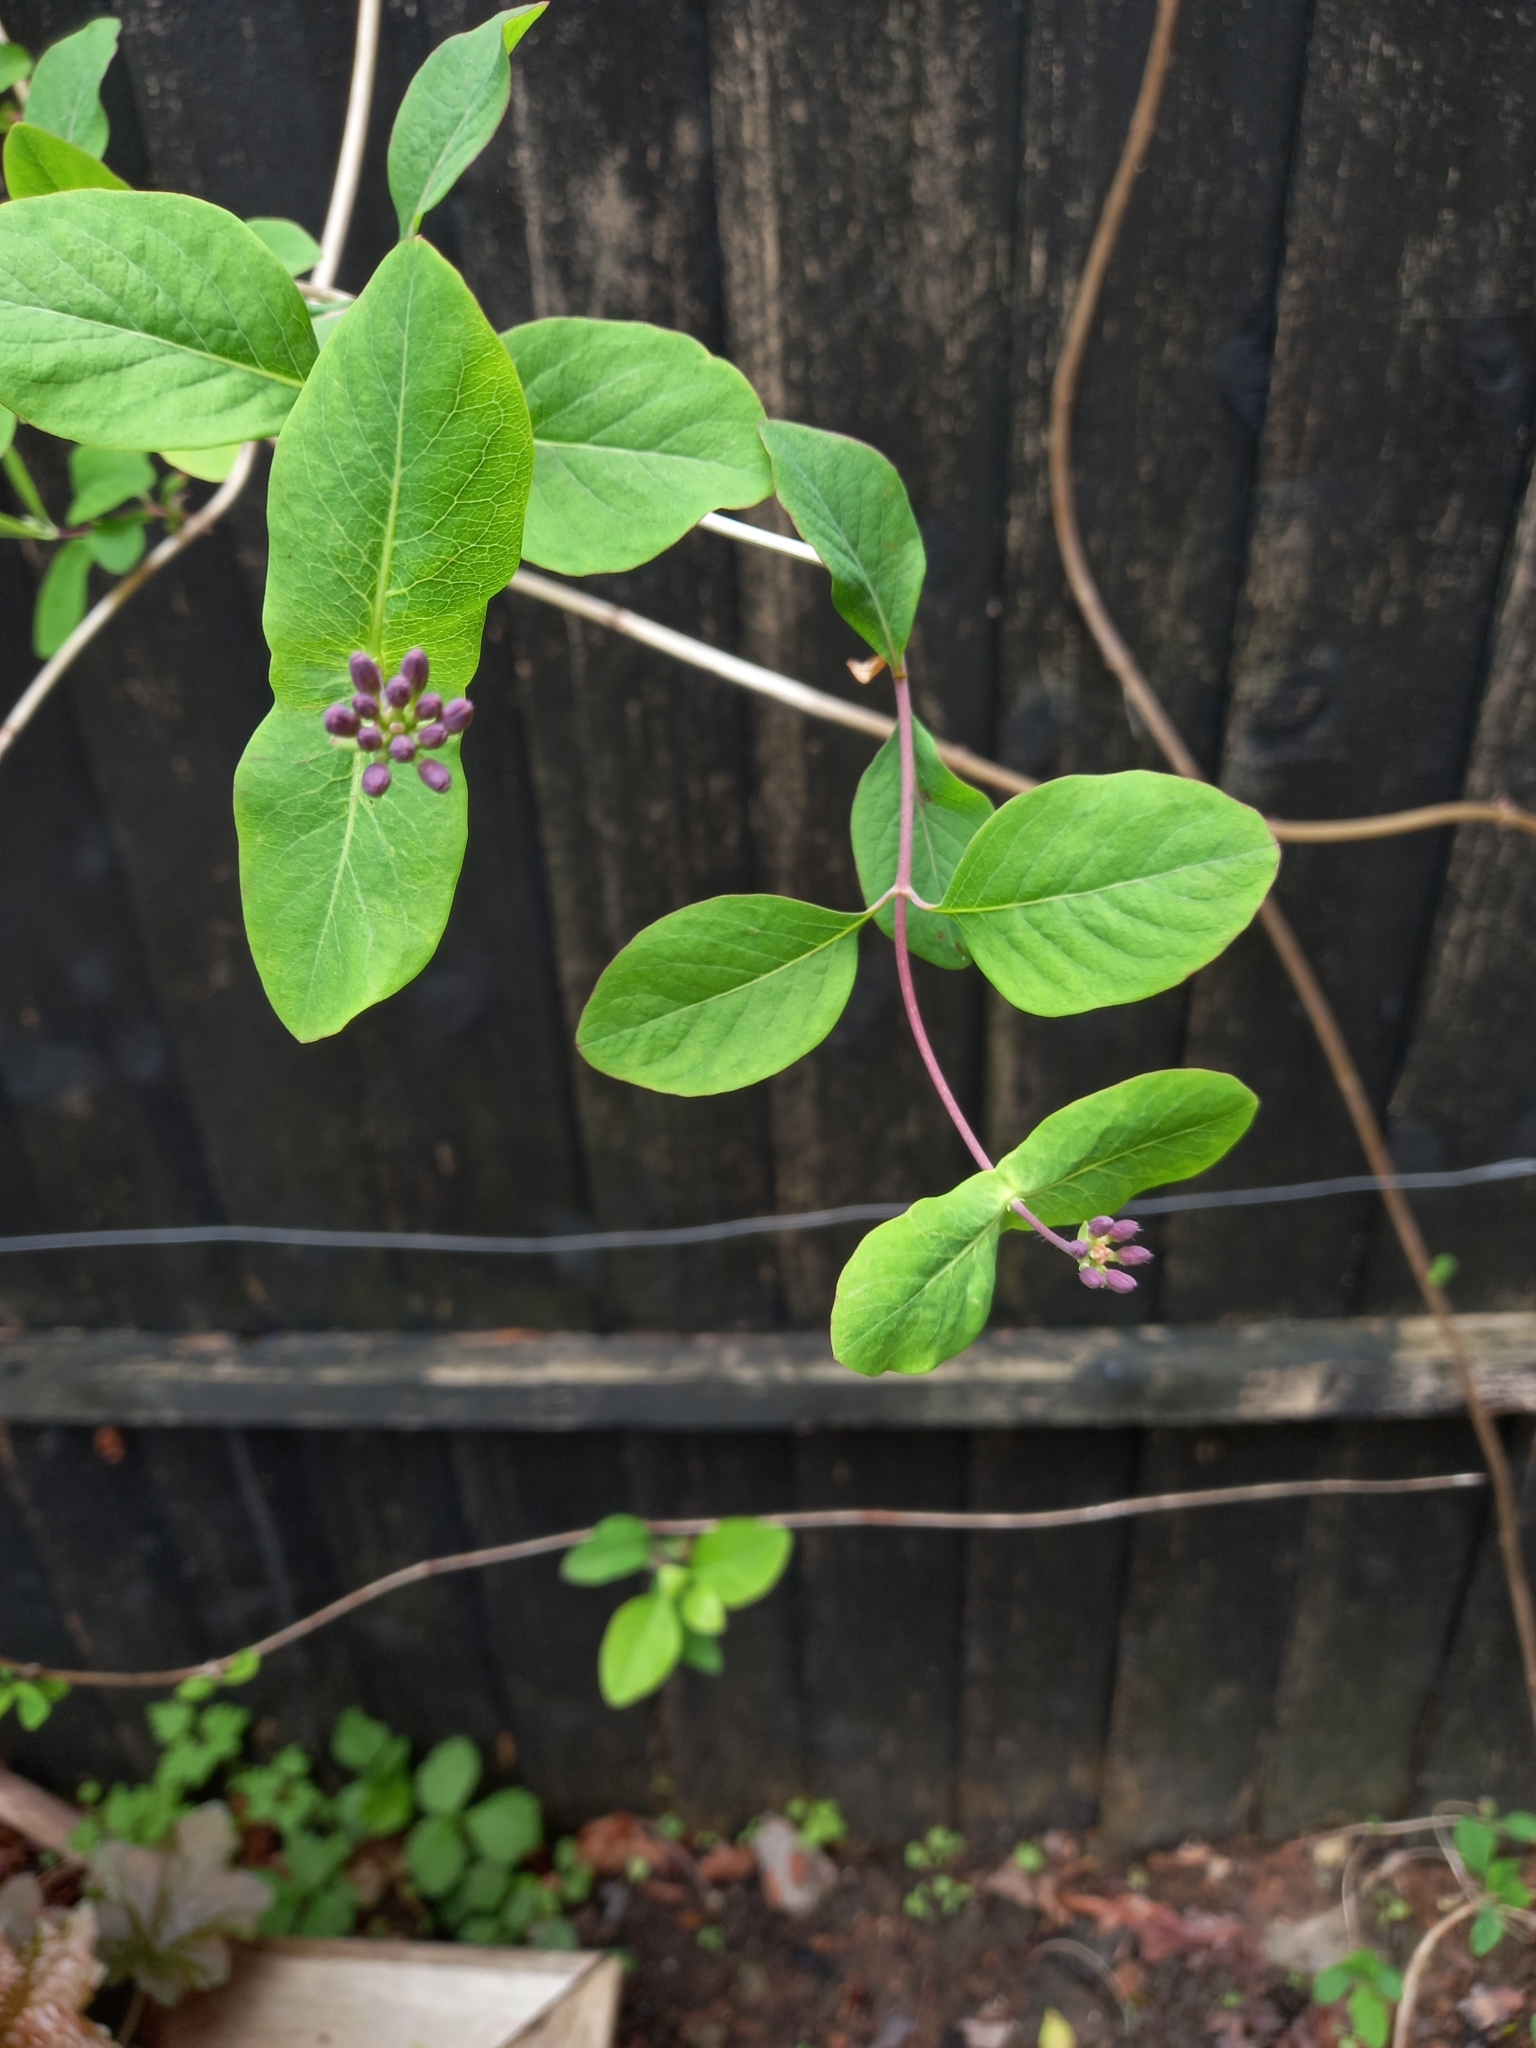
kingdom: Plantae
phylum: Tracheophyta
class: Magnoliopsida
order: Dipsacales
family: Caprifoliaceae
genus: Lonicera
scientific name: Lonicera periclymenum
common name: European honeysuckle
